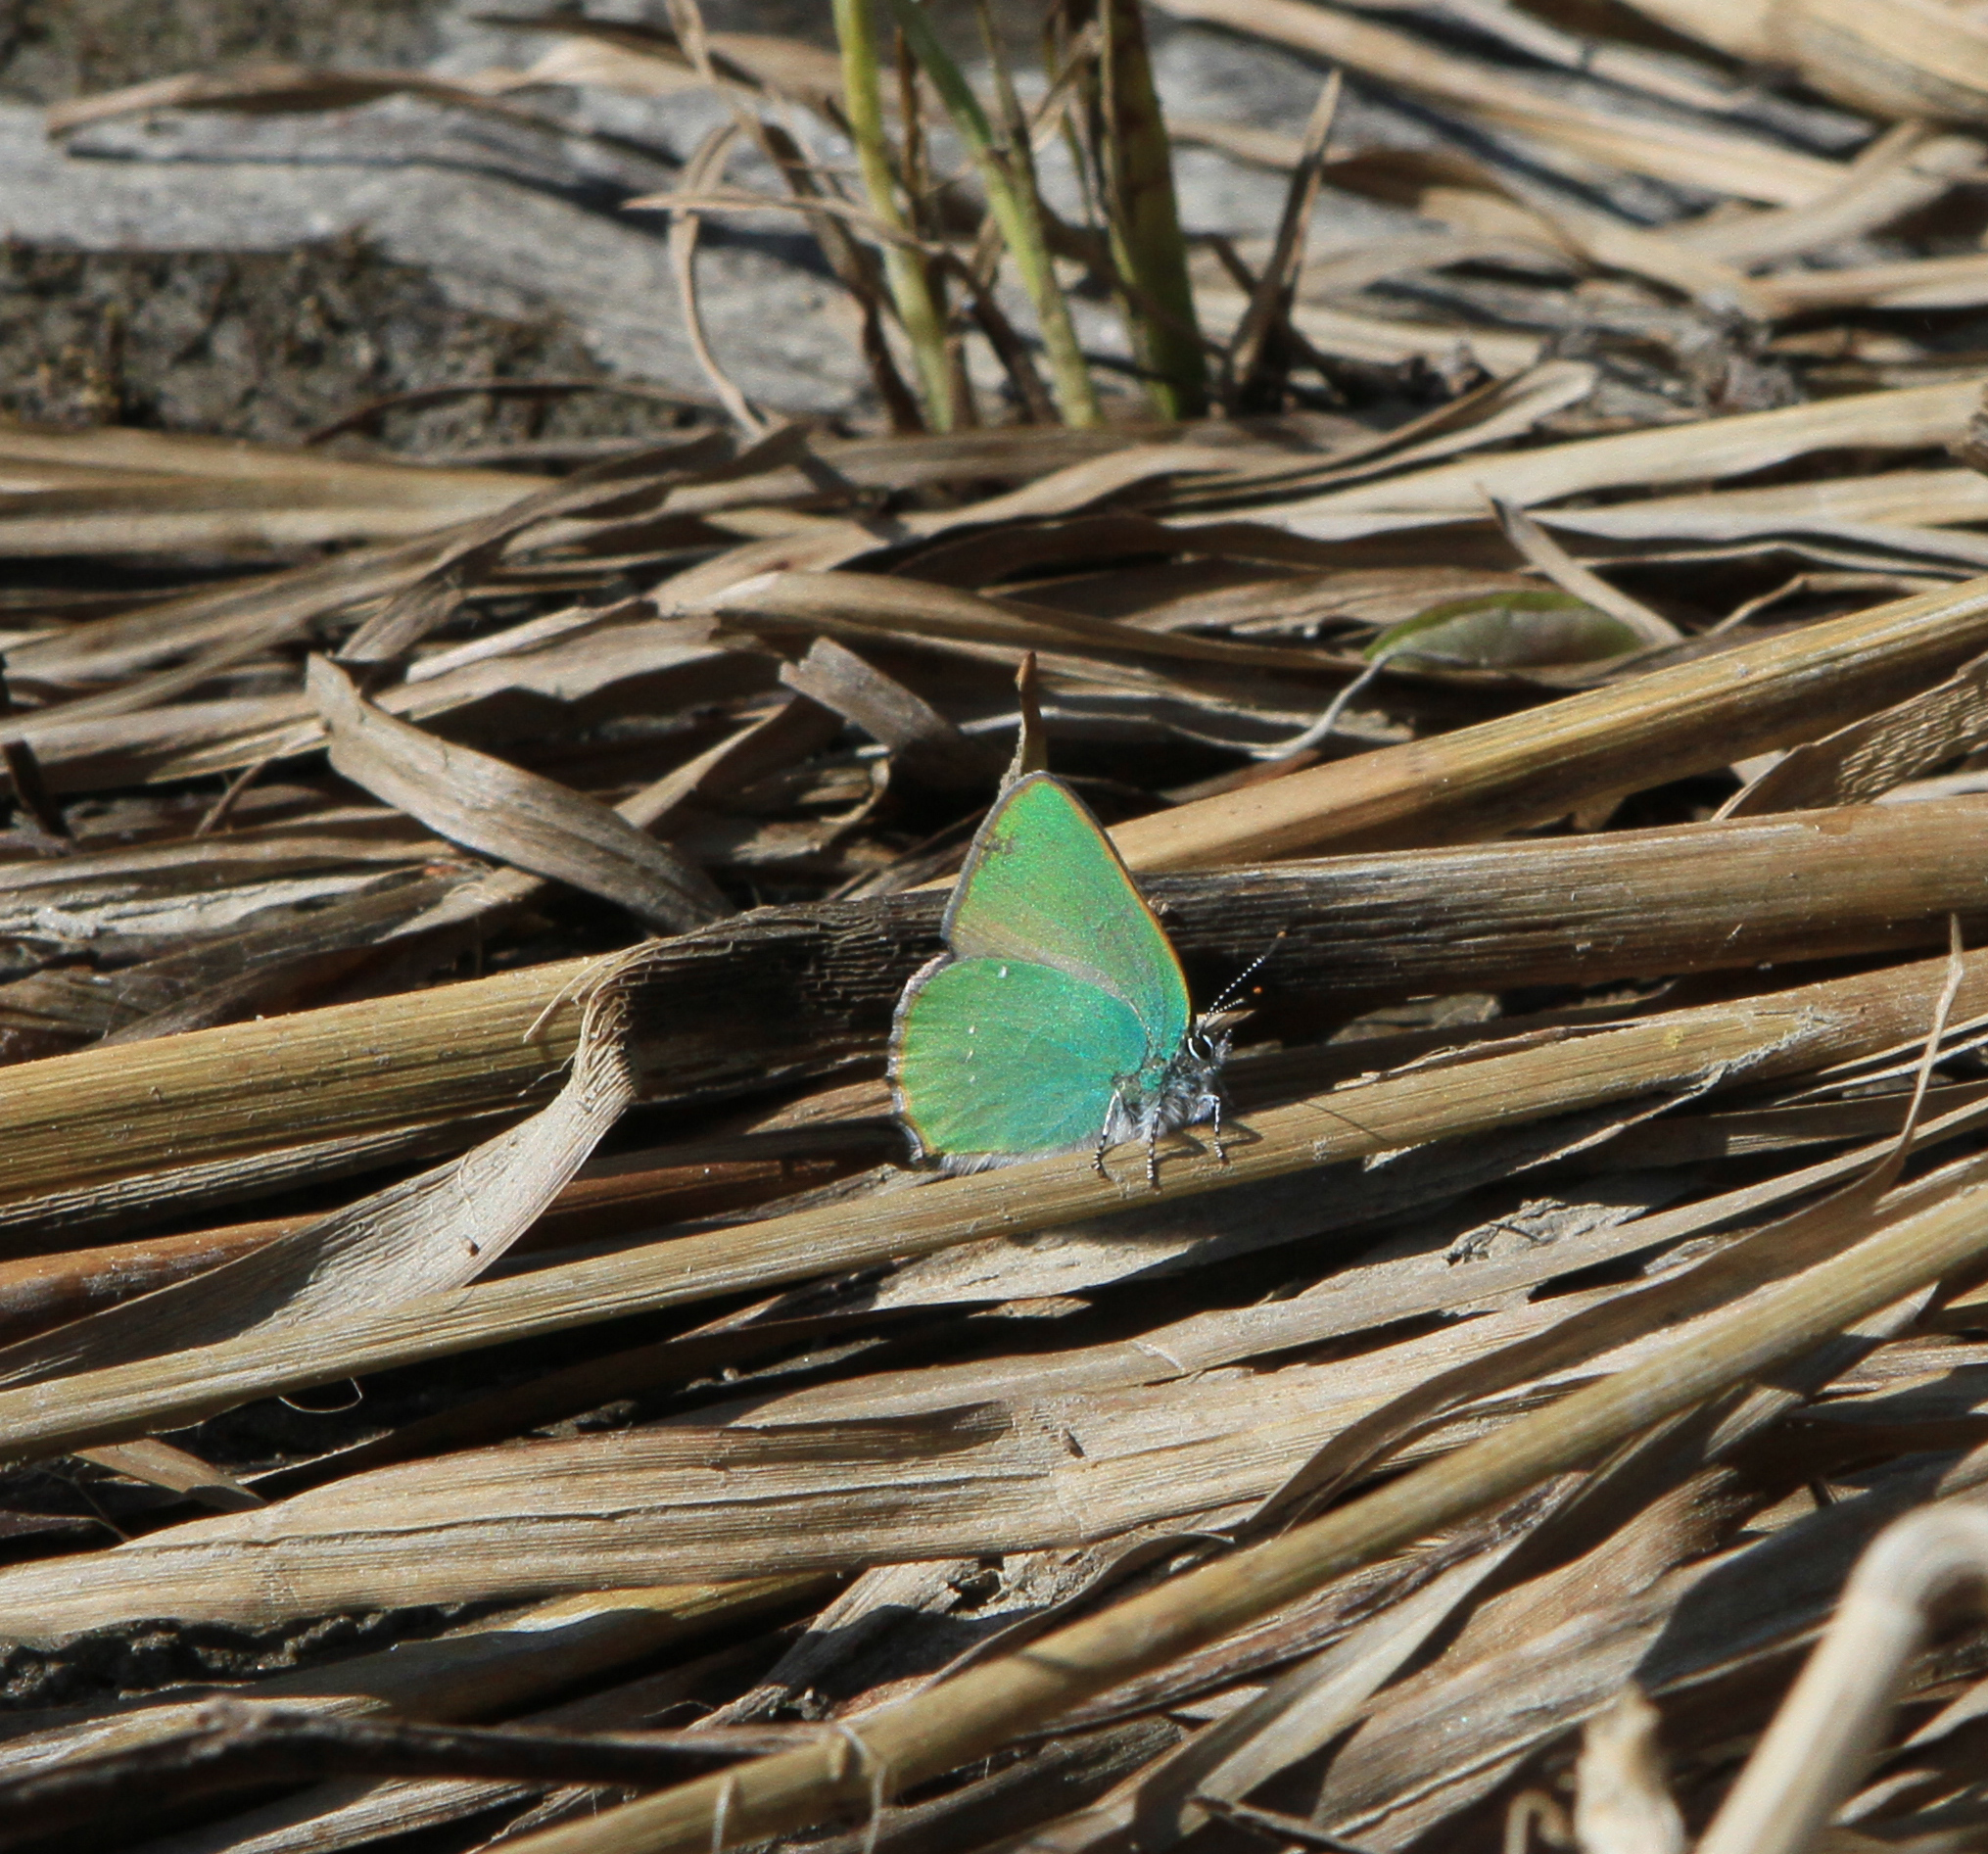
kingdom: Animalia
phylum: Arthropoda
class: Insecta
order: Lepidoptera
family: Lycaenidae
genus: Callophrys
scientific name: Callophrys rubi
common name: Green hairstreak
